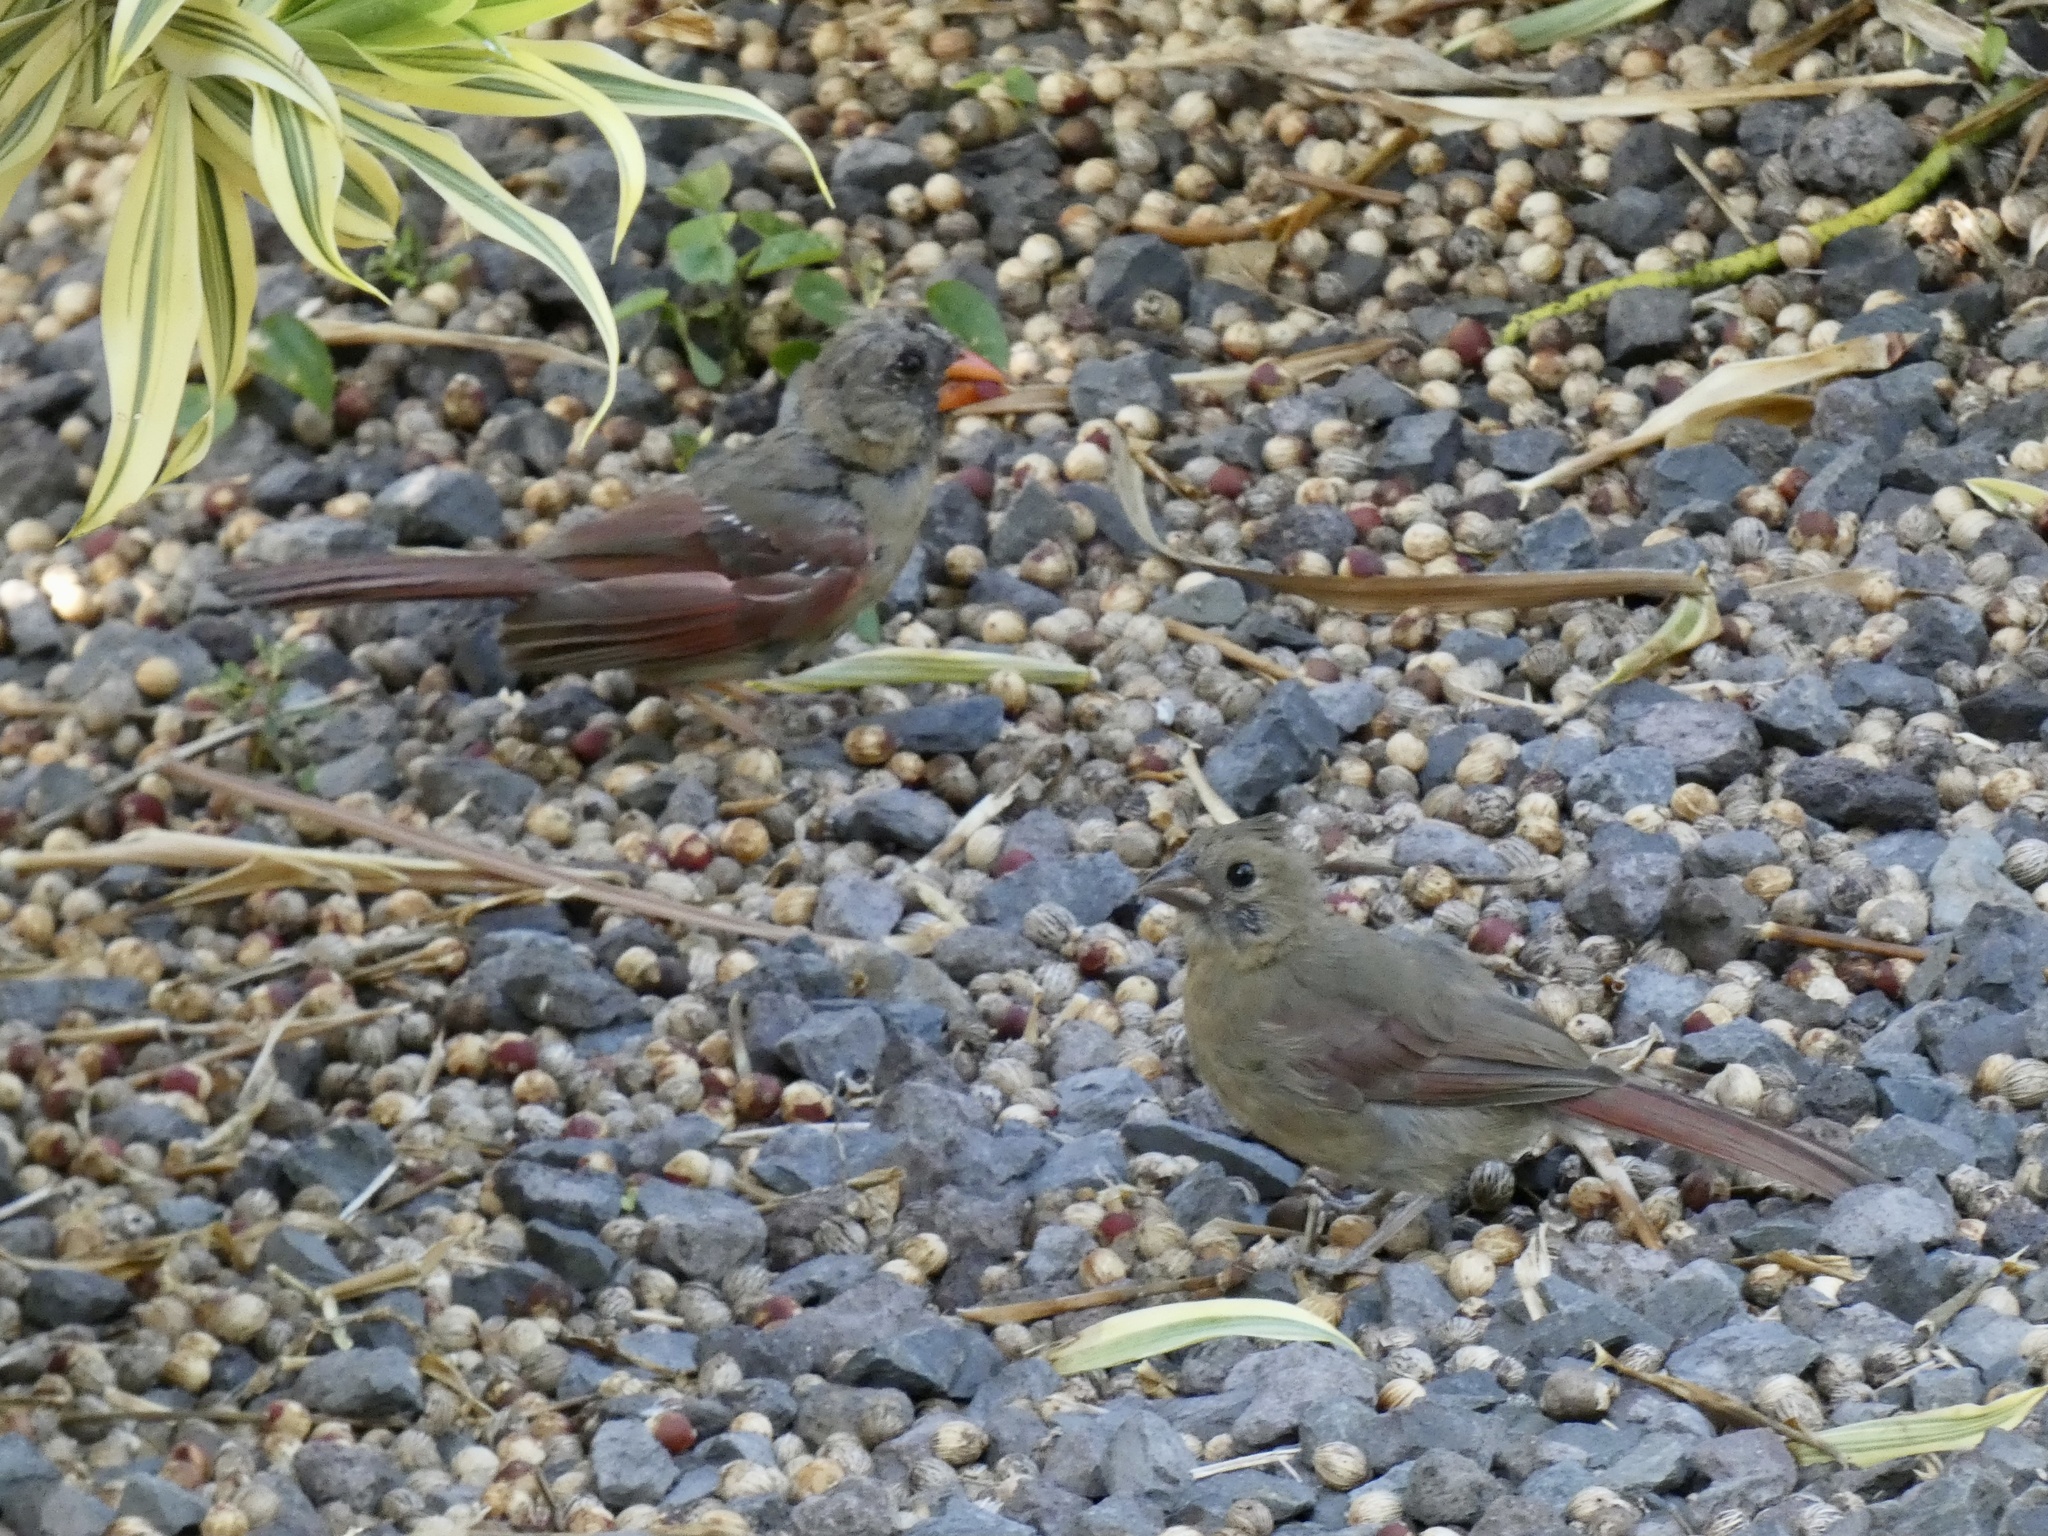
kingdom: Animalia
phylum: Chordata
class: Aves
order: Passeriformes
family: Cardinalidae
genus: Cardinalis
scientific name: Cardinalis cardinalis
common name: Northern cardinal
